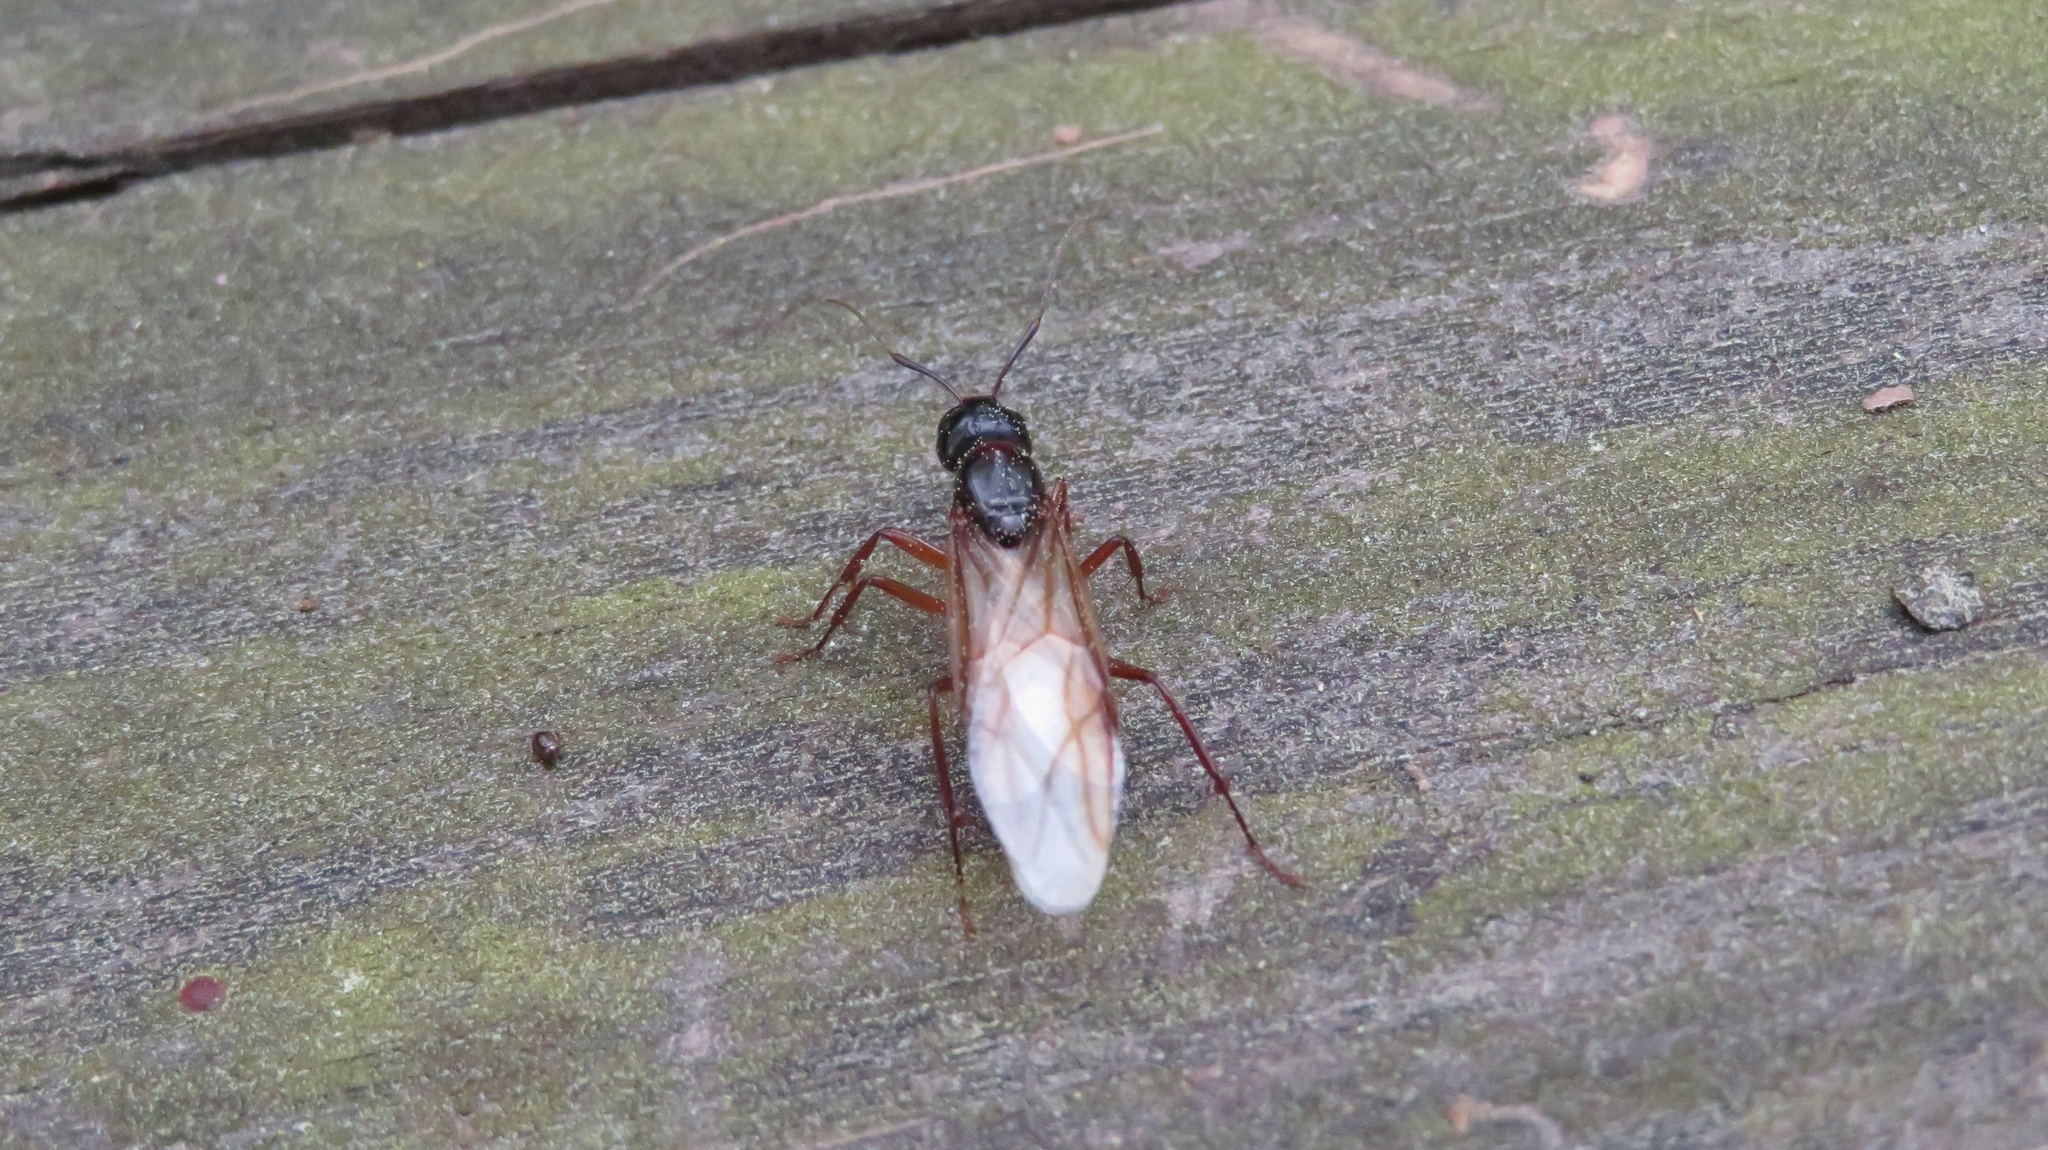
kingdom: Animalia
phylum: Arthropoda
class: Insecta
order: Hymenoptera
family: Formicidae
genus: Camponotus
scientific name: Camponotus americanus
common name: American carpenter ant
